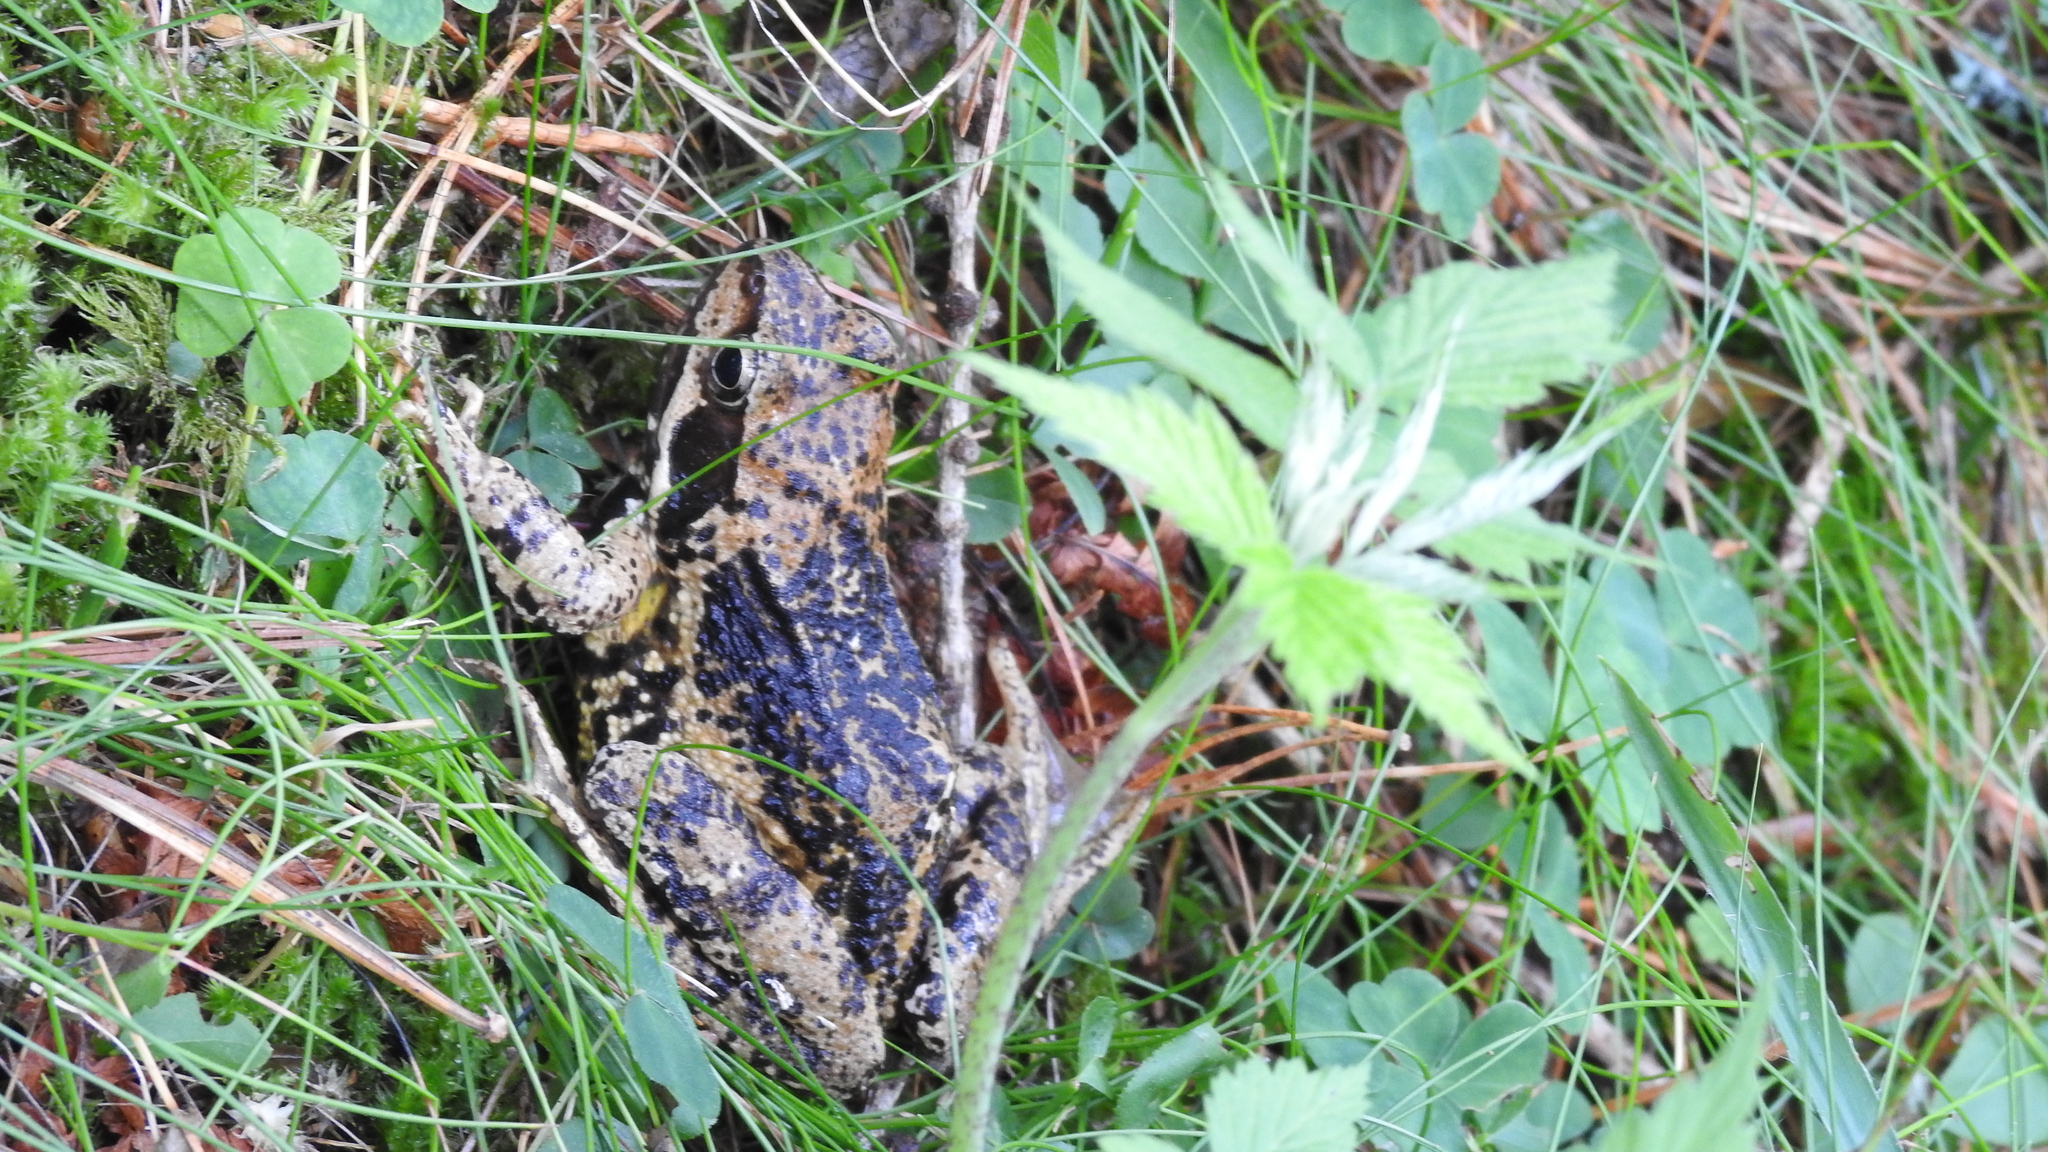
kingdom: Animalia
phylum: Chordata
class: Amphibia
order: Anura
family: Ranidae
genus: Rana
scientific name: Rana temporaria
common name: Common frog
